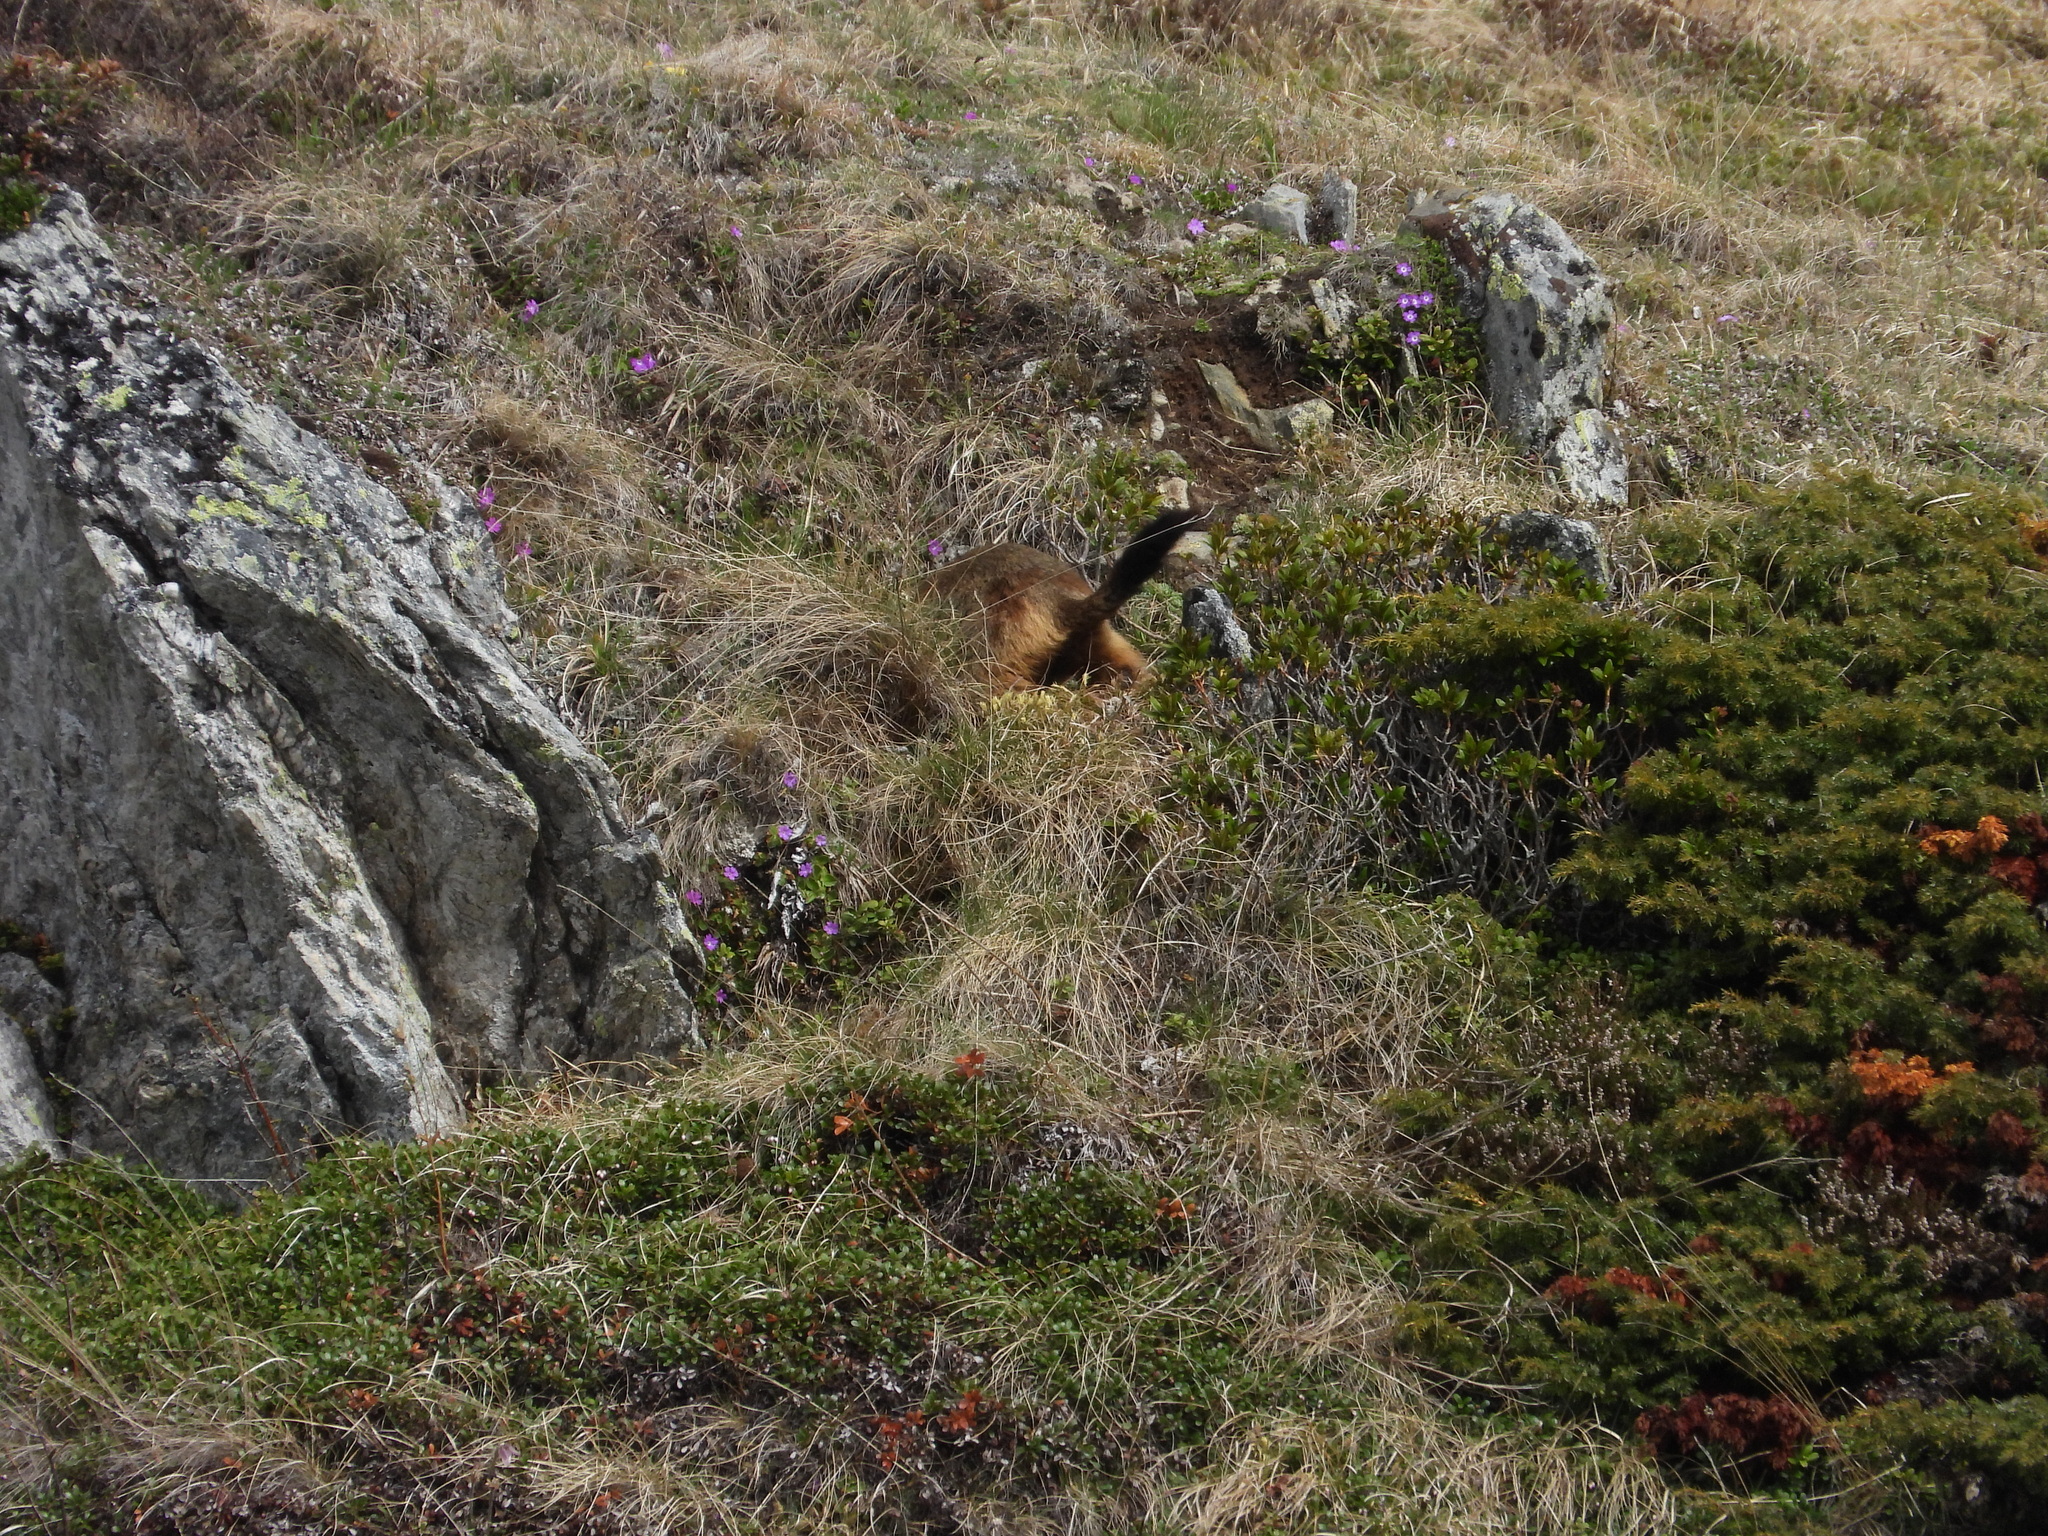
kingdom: Animalia
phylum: Chordata
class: Mammalia
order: Rodentia
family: Sciuridae
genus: Marmota
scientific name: Marmota marmota
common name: Alpine marmot
